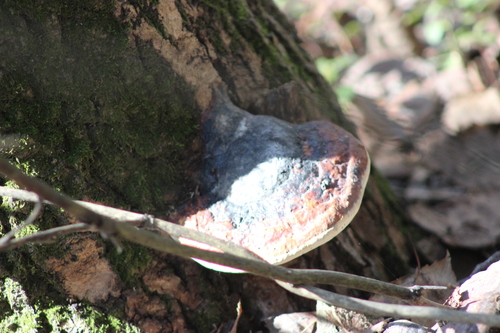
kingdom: Fungi
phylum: Basidiomycota
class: Agaricomycetes
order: Polyporales
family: Fomitopsidaceae
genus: Fomitopsis
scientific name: Fomitopsis pinicola
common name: Red-belted bracket
